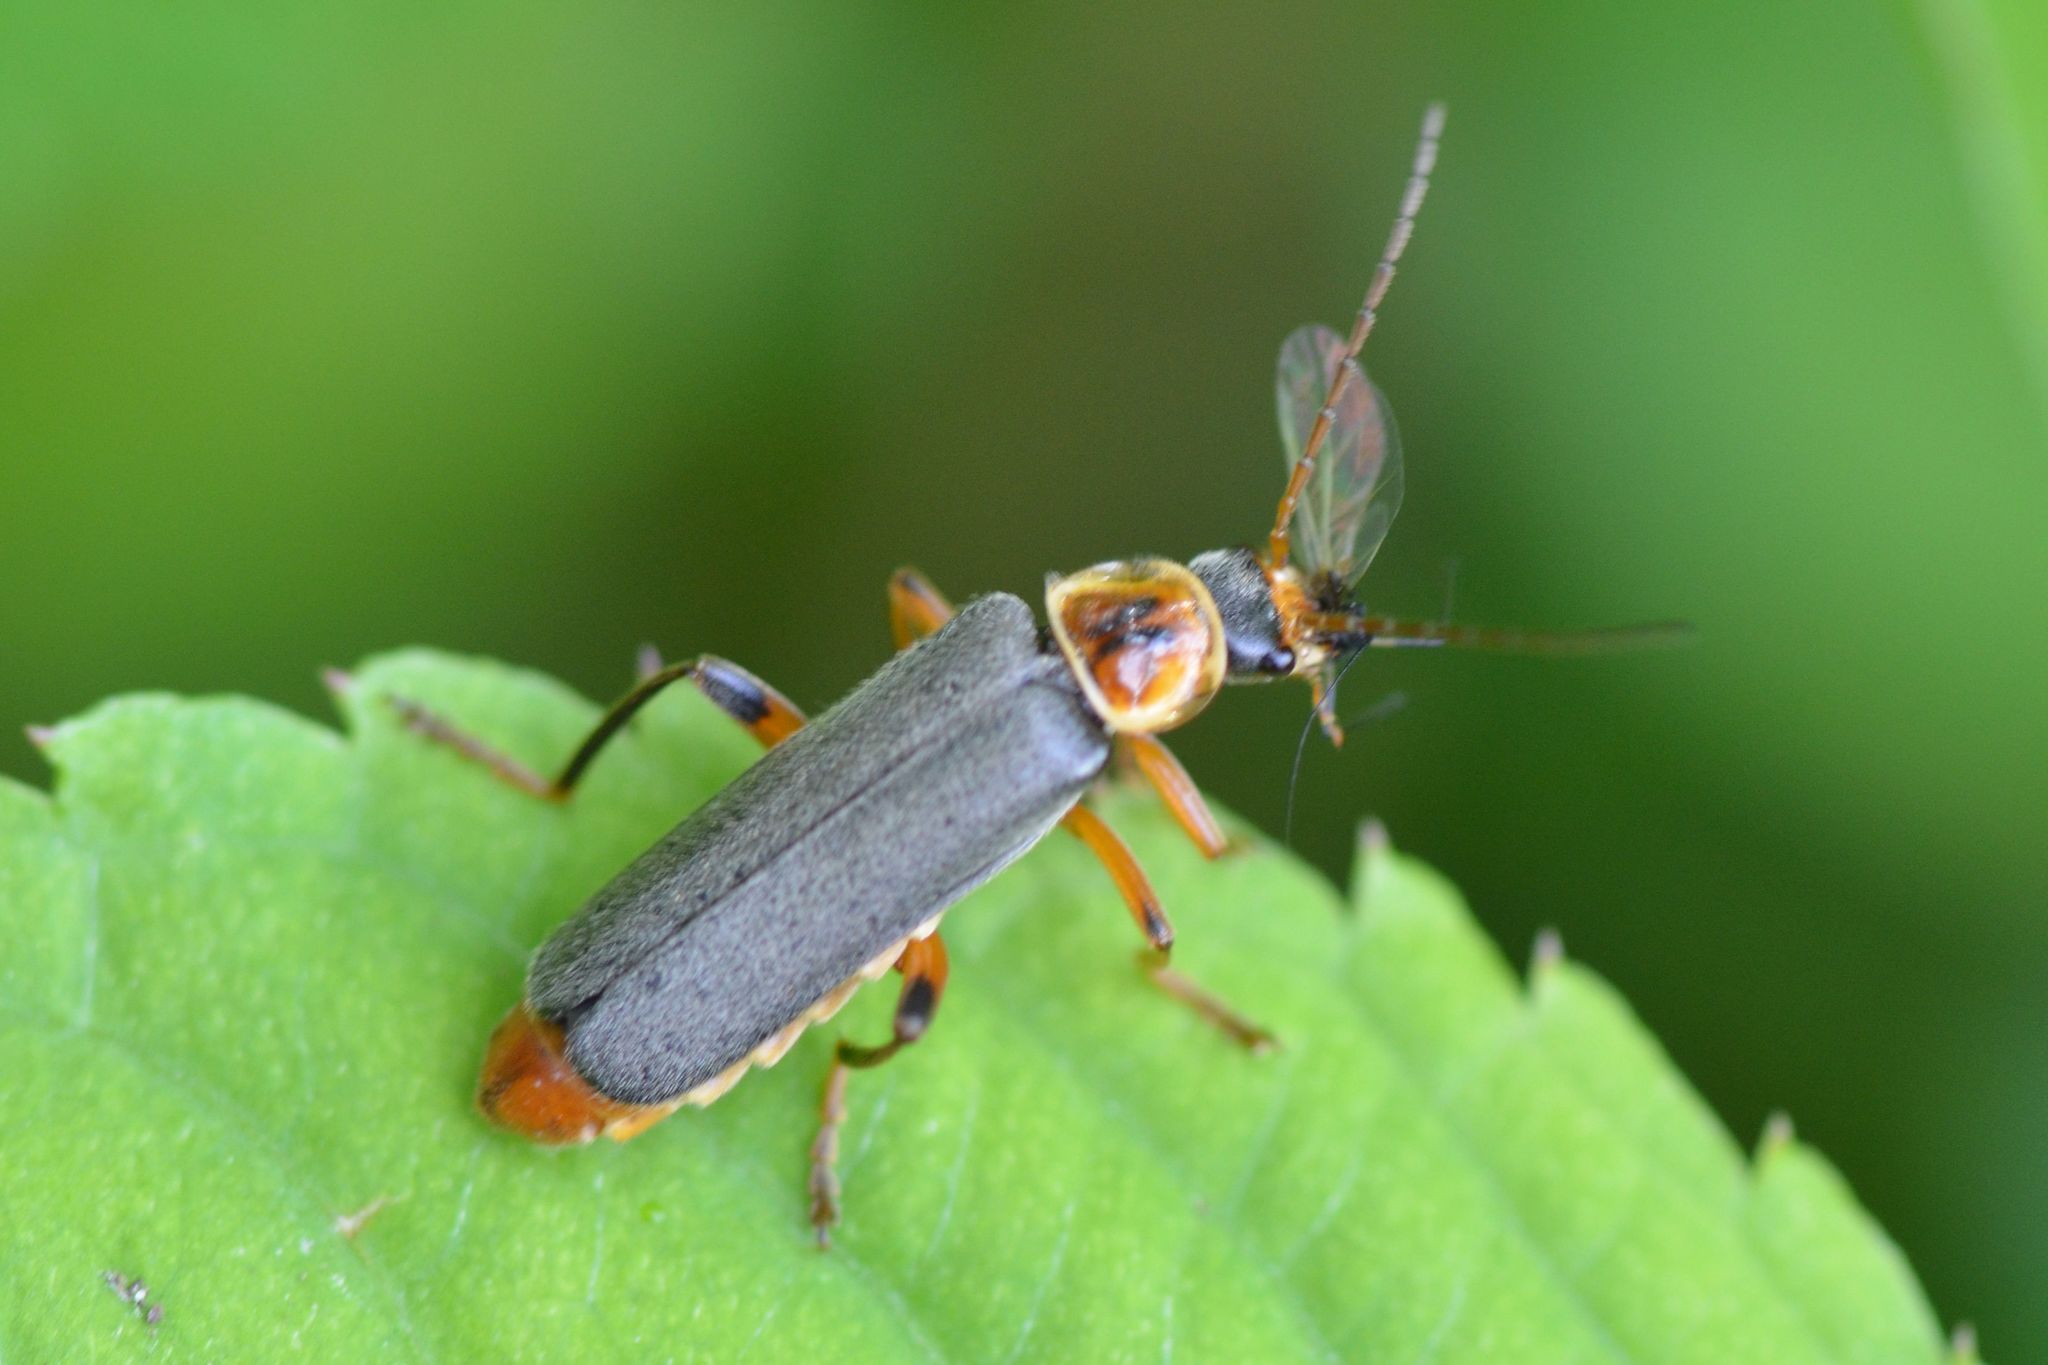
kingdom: Animalia
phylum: Arthropoda
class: Insecta
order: Coleoptera
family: Cantharidae
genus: Cantharis
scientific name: Cantharis nigricans
